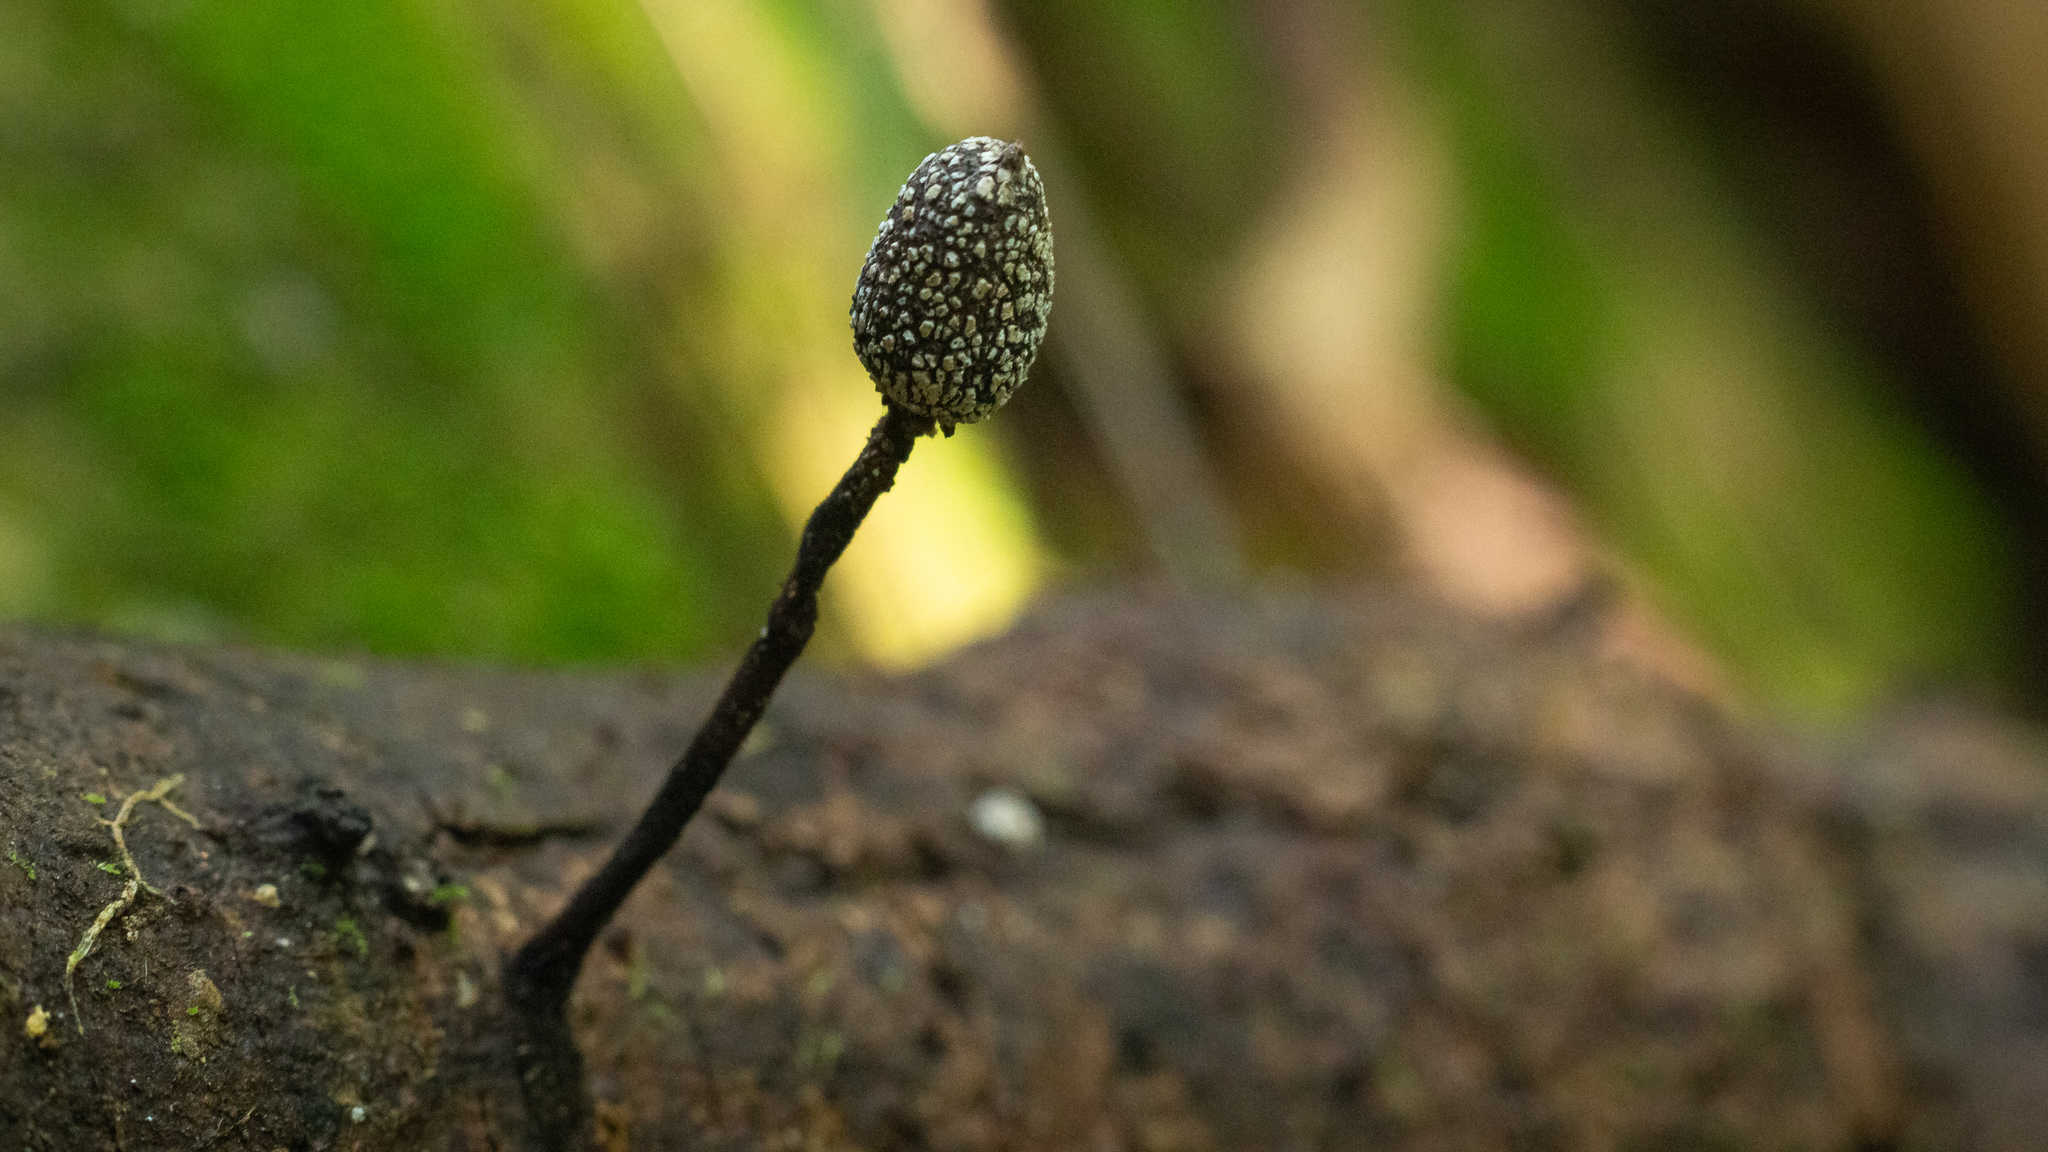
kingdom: Fungi
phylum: Ascomycota
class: Sordariomycetes
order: Xylariales
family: Xylariaceae
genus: Xylaria
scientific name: Xylaria comosa
